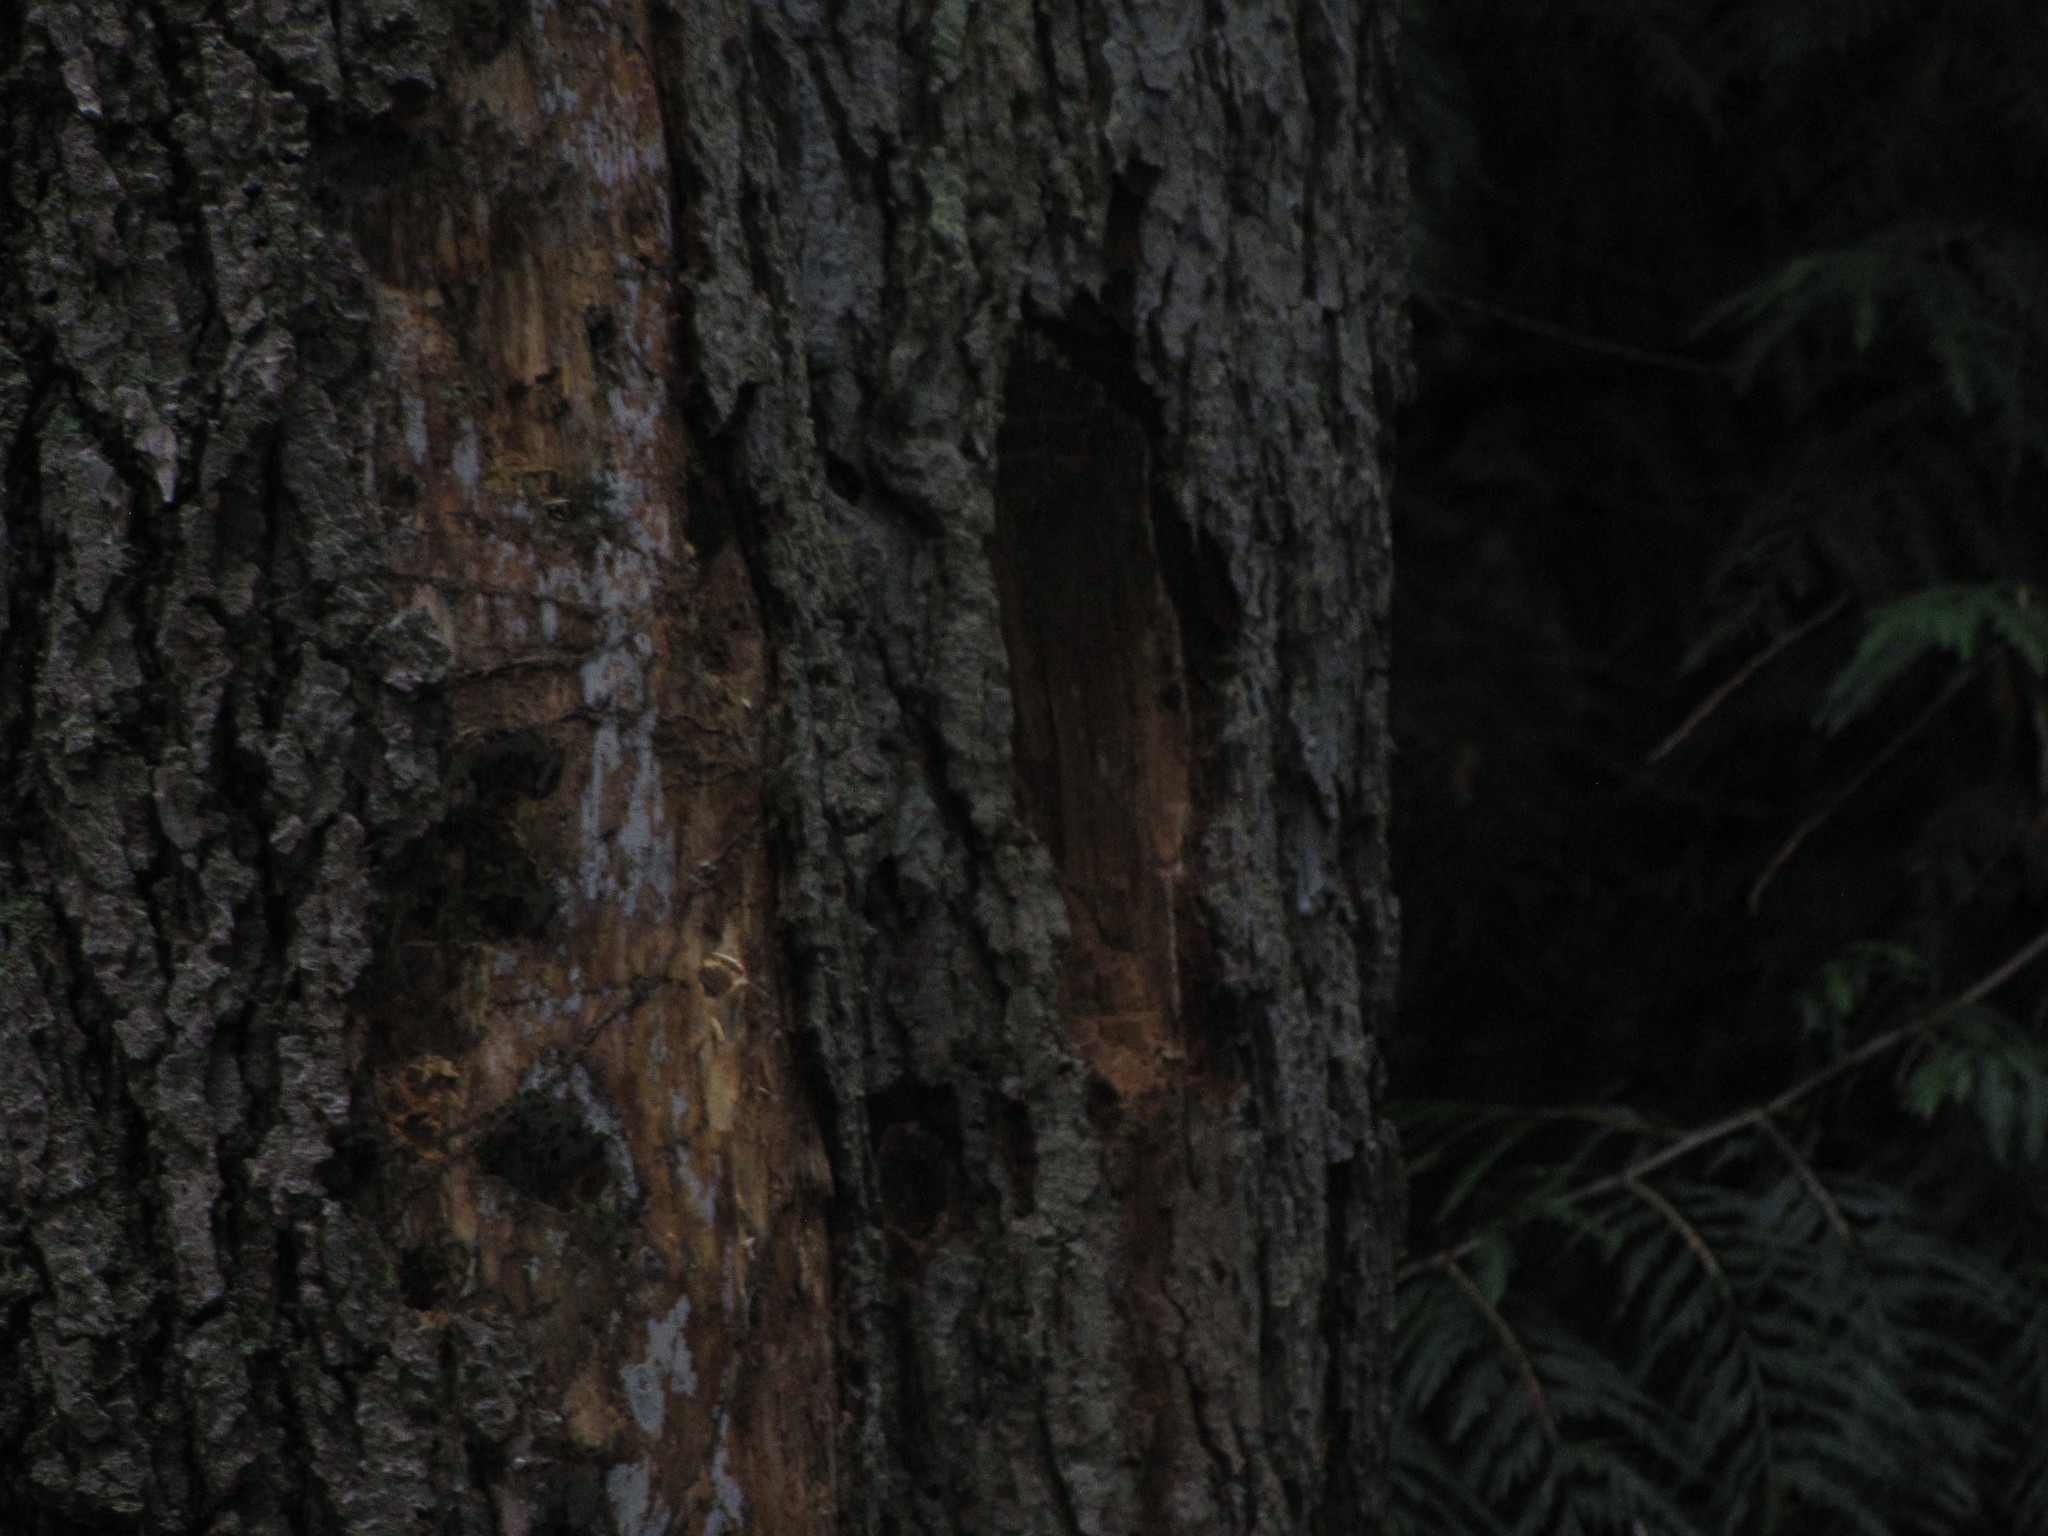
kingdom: Animalia
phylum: Chordata
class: Aves
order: Piciformes
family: Picidae
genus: Dryocopus
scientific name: Dryocopus pileatus
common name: Pileated woodpecker
